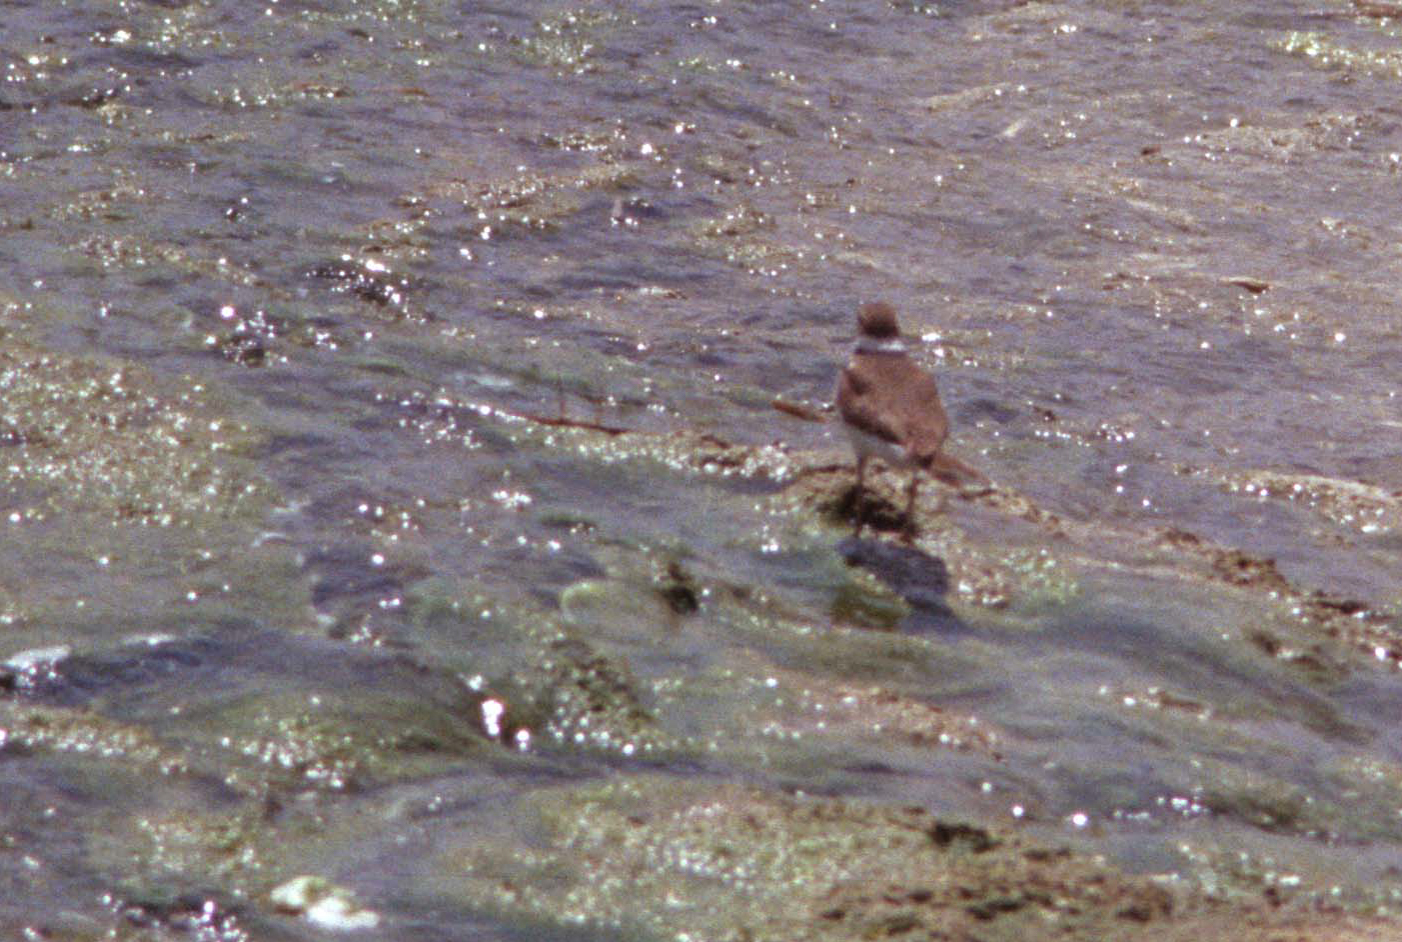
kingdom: Animalia
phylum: Chordata
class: Aves
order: Charadriiformes
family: Charadriidae
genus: Charadrius
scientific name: Charadrius vociferus
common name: Killdeer
